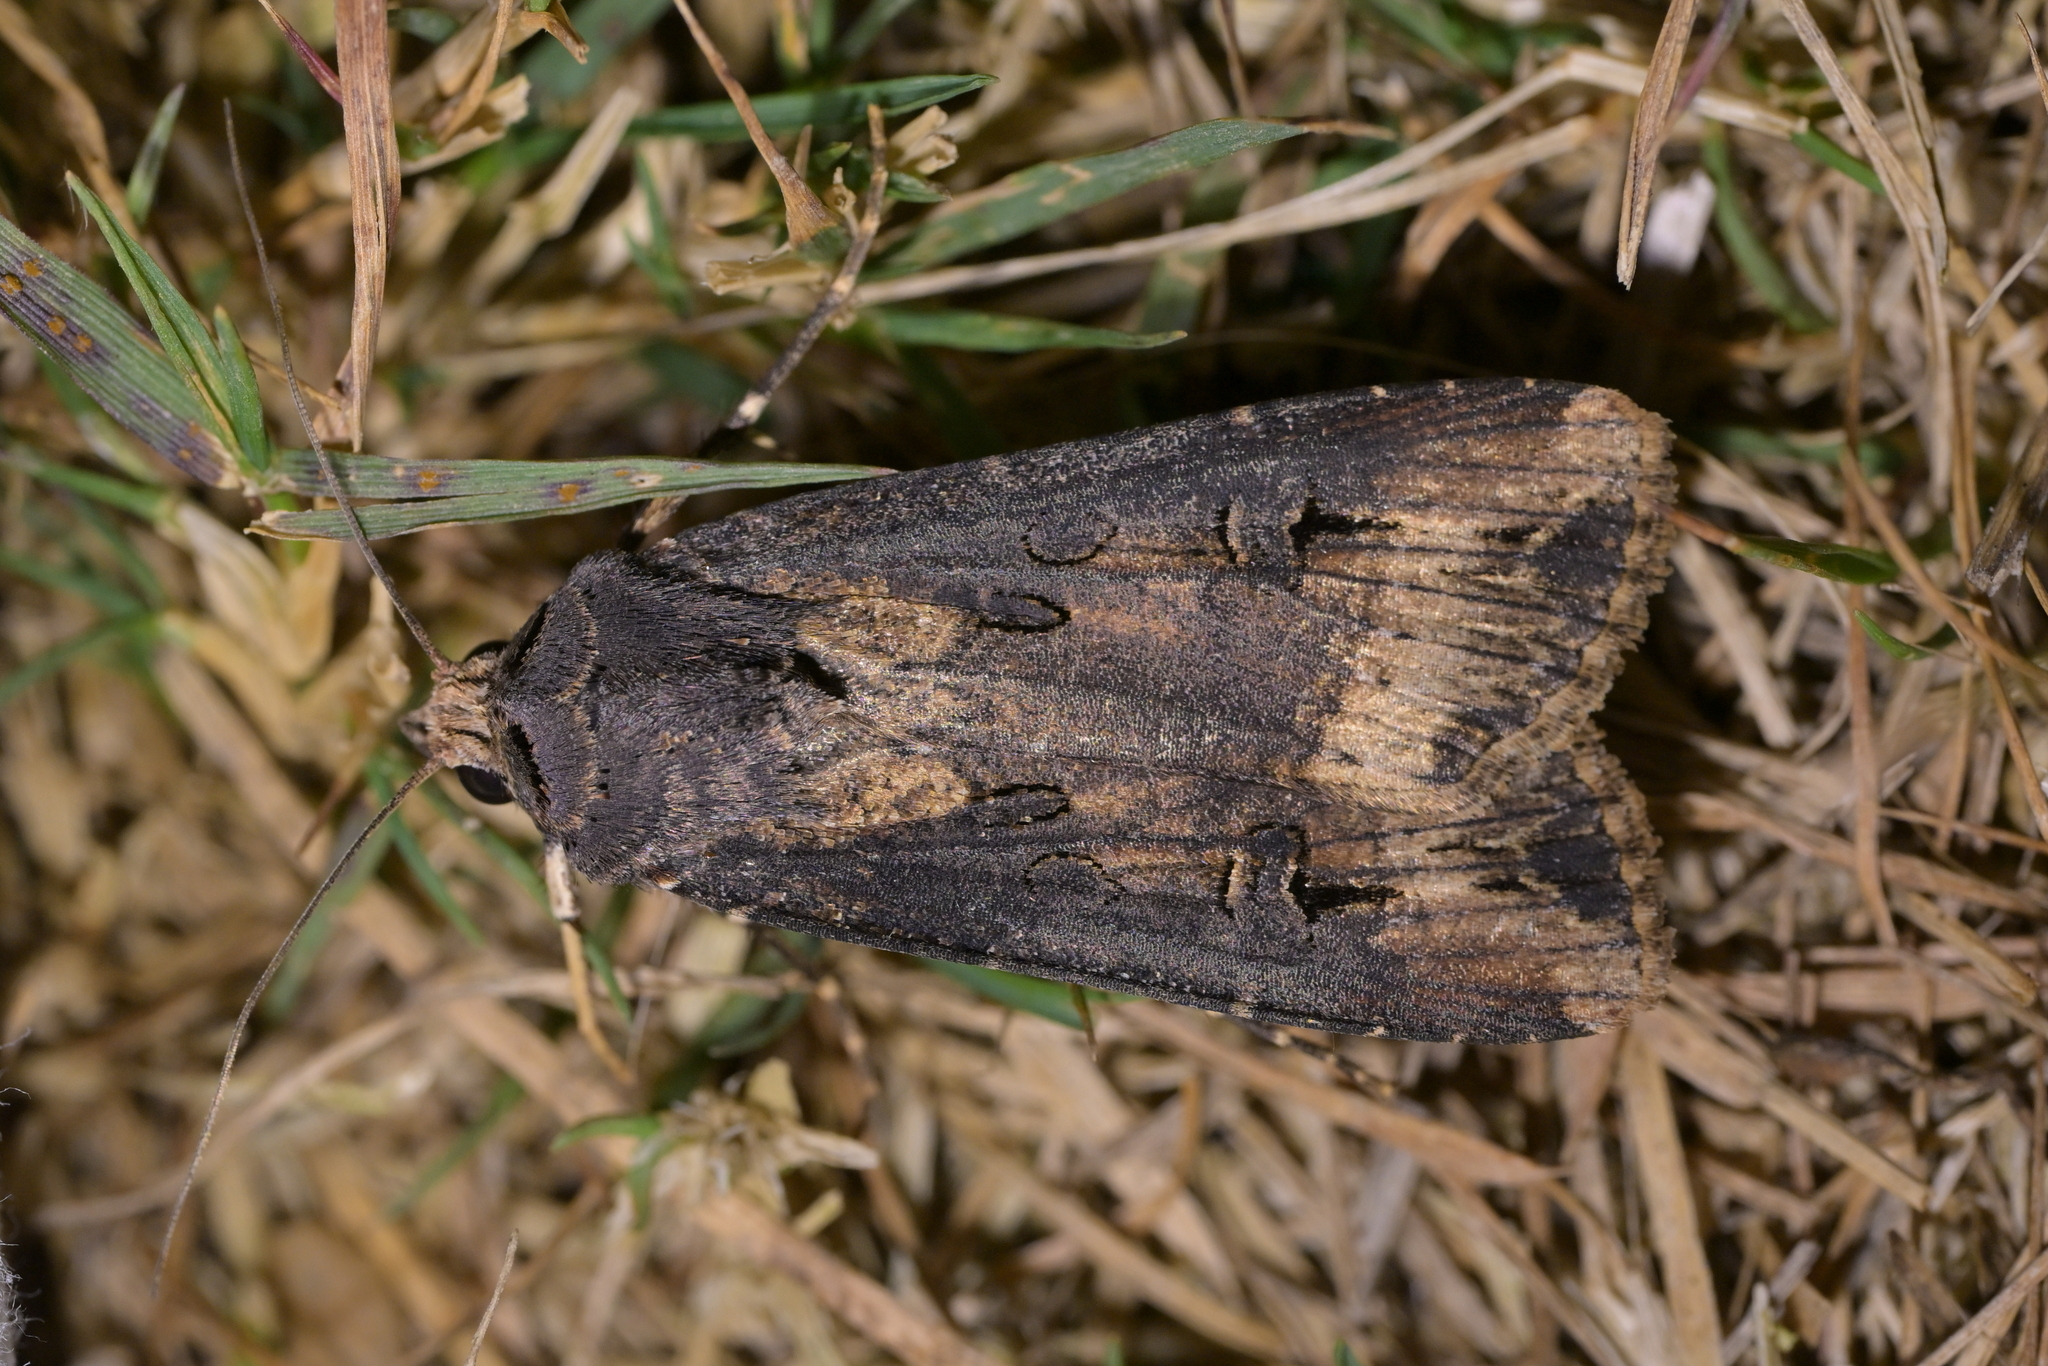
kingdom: Animalia
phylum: Arthropoda
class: Insecta
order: Lepidoptera
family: Noctuidae
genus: Agrotis
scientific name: Agrotis ipsilon
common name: Dark sword-grass
